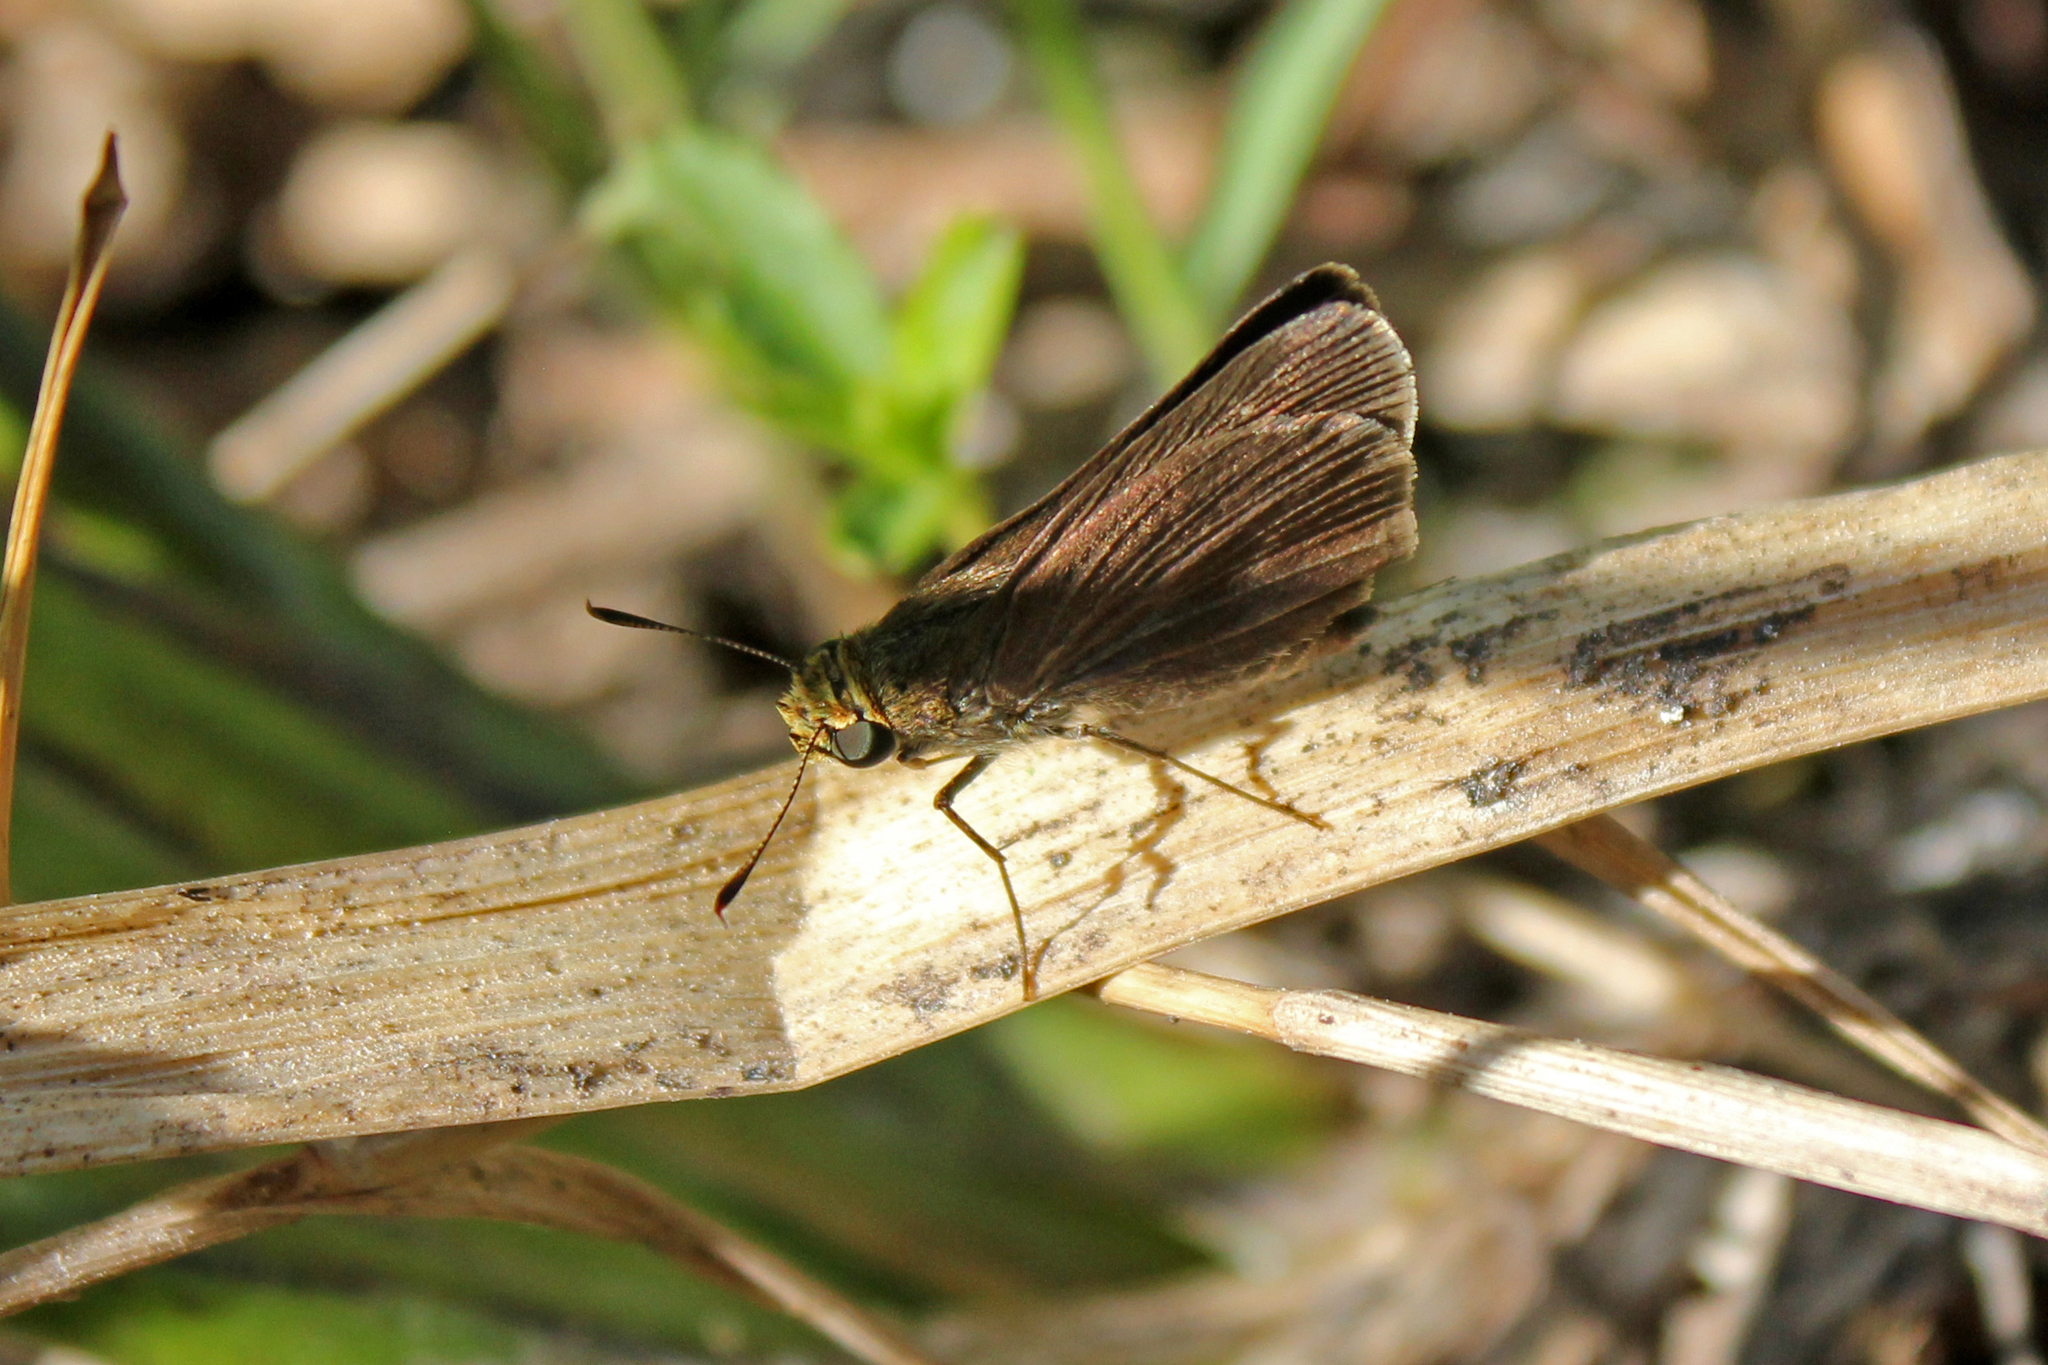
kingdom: Animalia
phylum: Arthropoda
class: Insecta
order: Lepidoptera
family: Hesperiidae
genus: Euphyes
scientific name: Euphyes vestris
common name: Dun skipper
